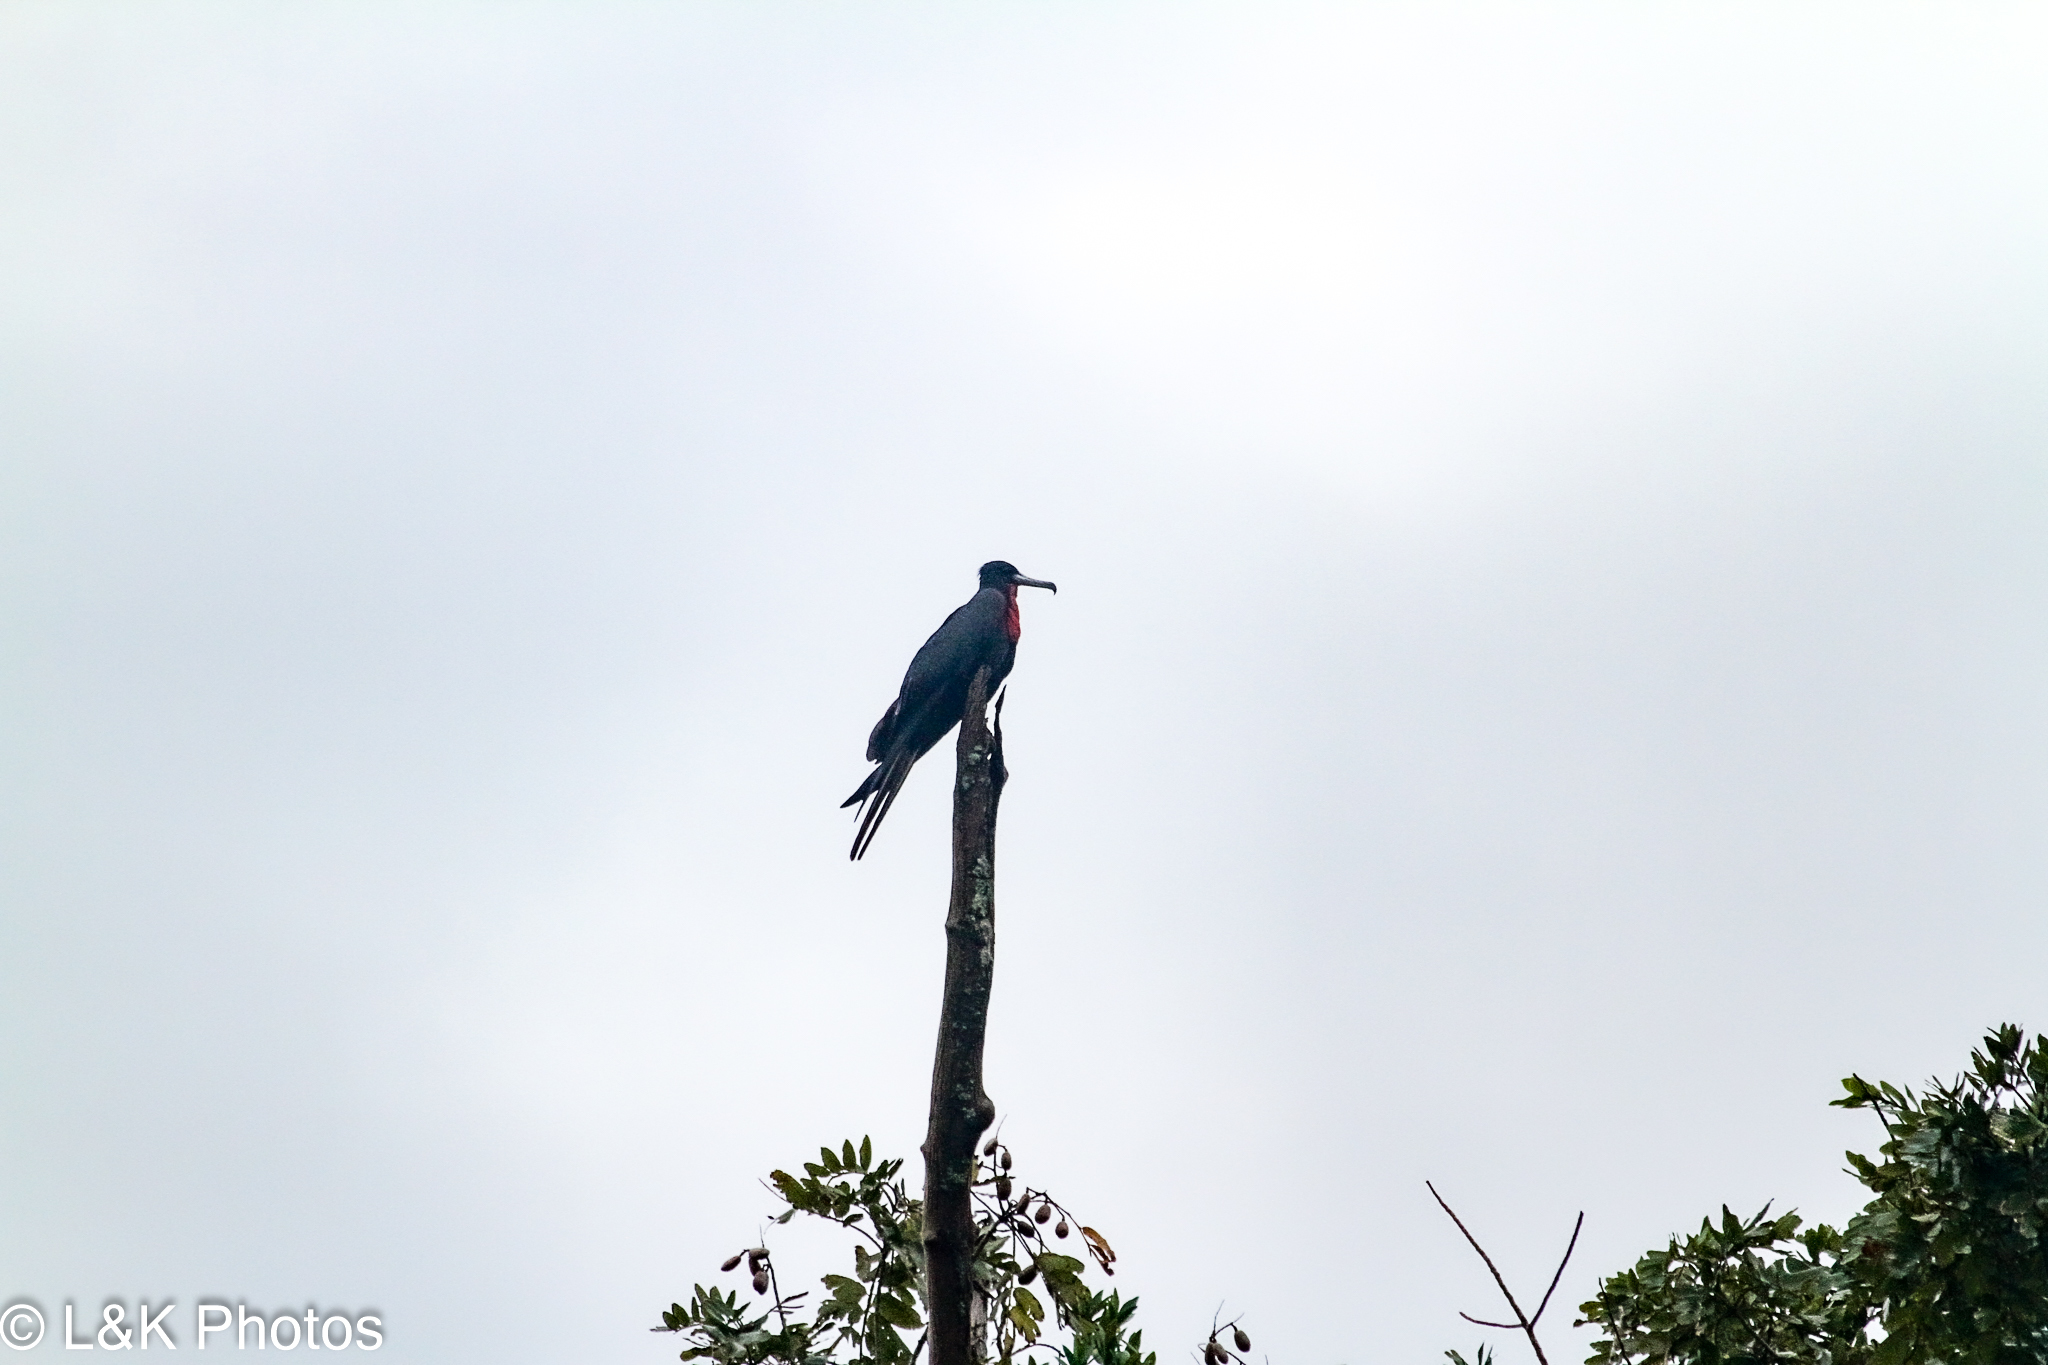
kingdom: Animalia
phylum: Chordata
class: Aves
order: Suliformes
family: Fregatidae
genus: Fregata
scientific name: Fregata magnificens
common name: Magnificent frigatebird
